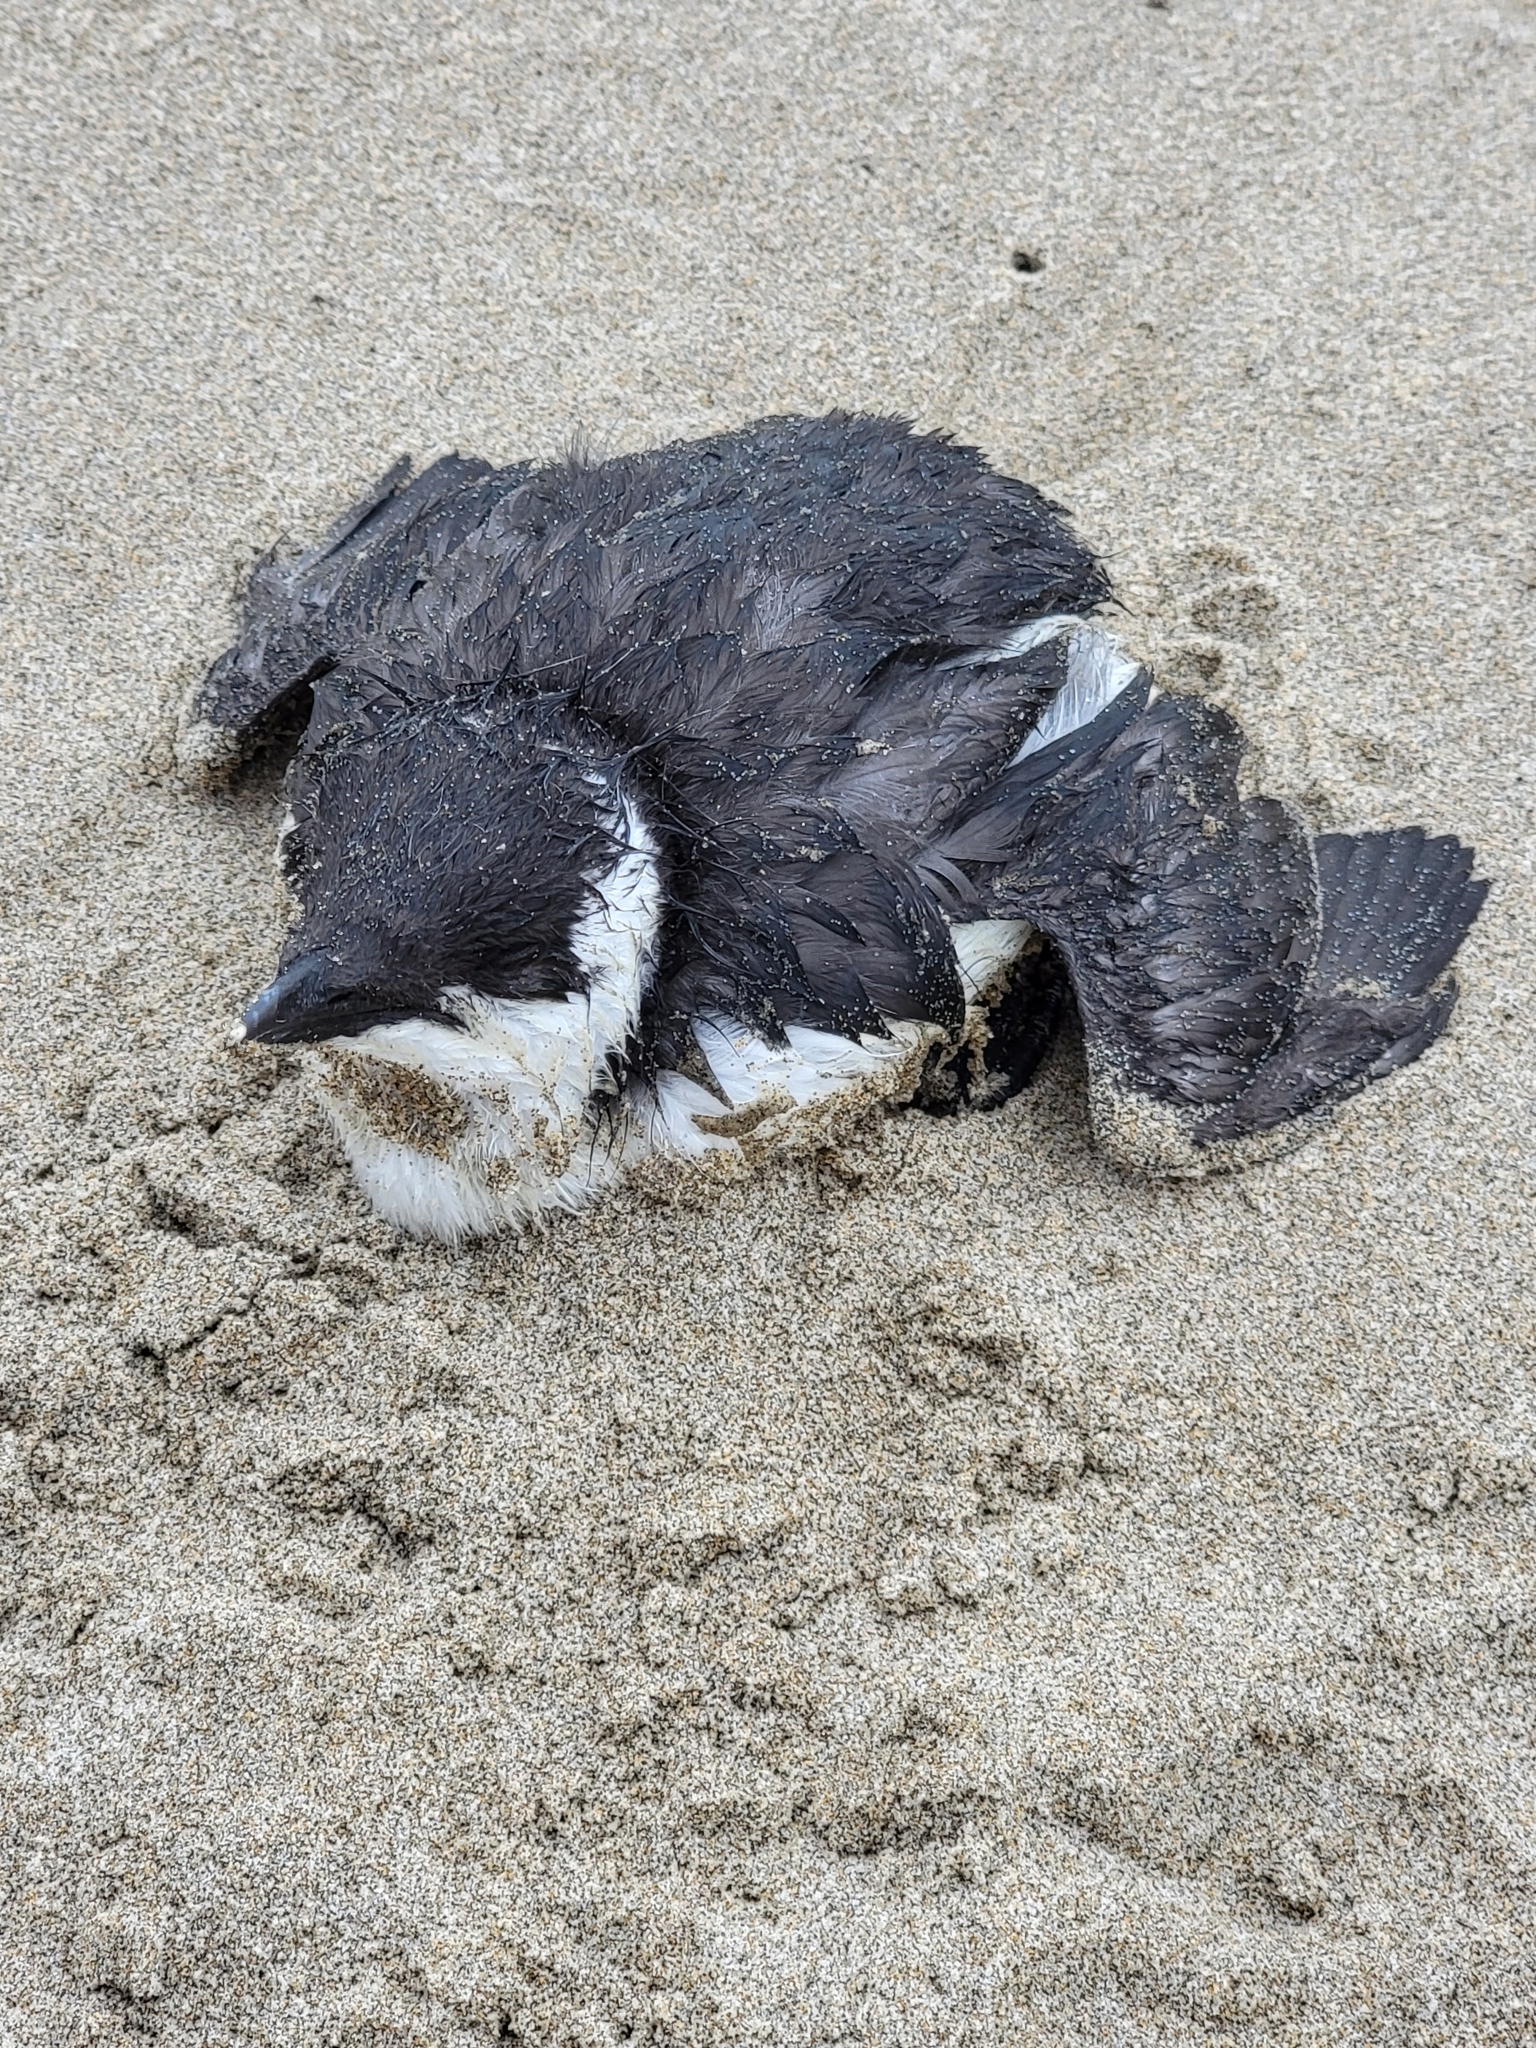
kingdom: Animalia
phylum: Chordata
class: Aves
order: Charadriiformes
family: Alcidae
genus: Uria
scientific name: Uria aalge
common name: Common murre
